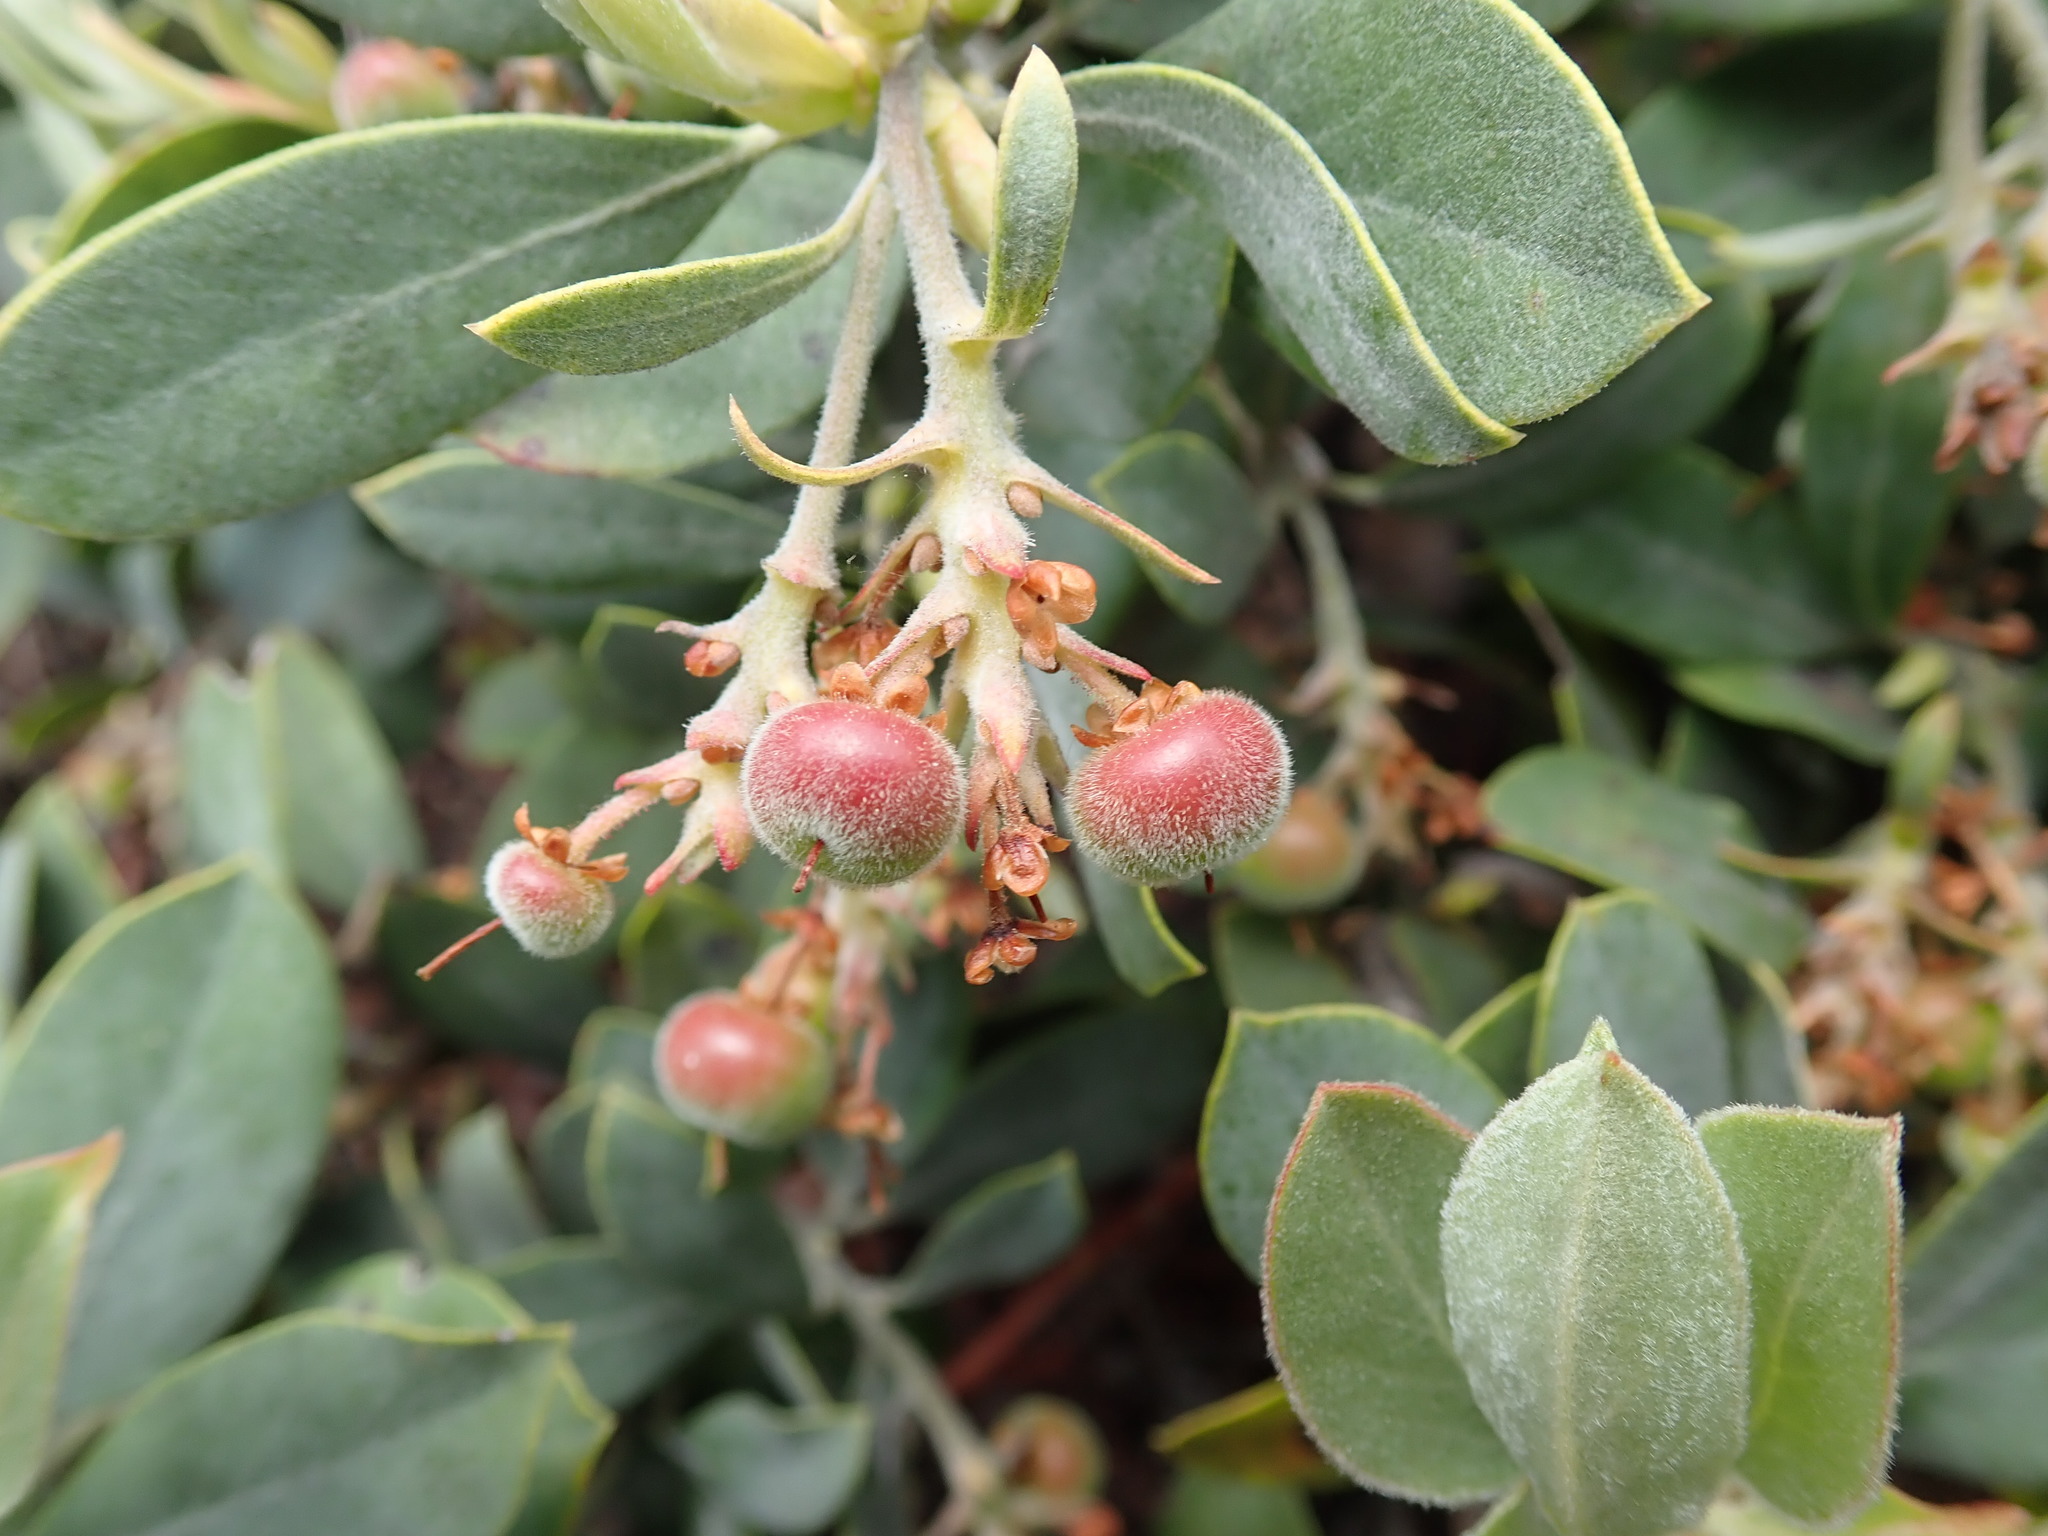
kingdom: Plantae
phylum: Tracheophyta
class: Magnoliopsida
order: Ericales
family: Ericaceae
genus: Arctostaphylos
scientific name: Arctostaphylos columbiana
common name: Bristly bearberry
